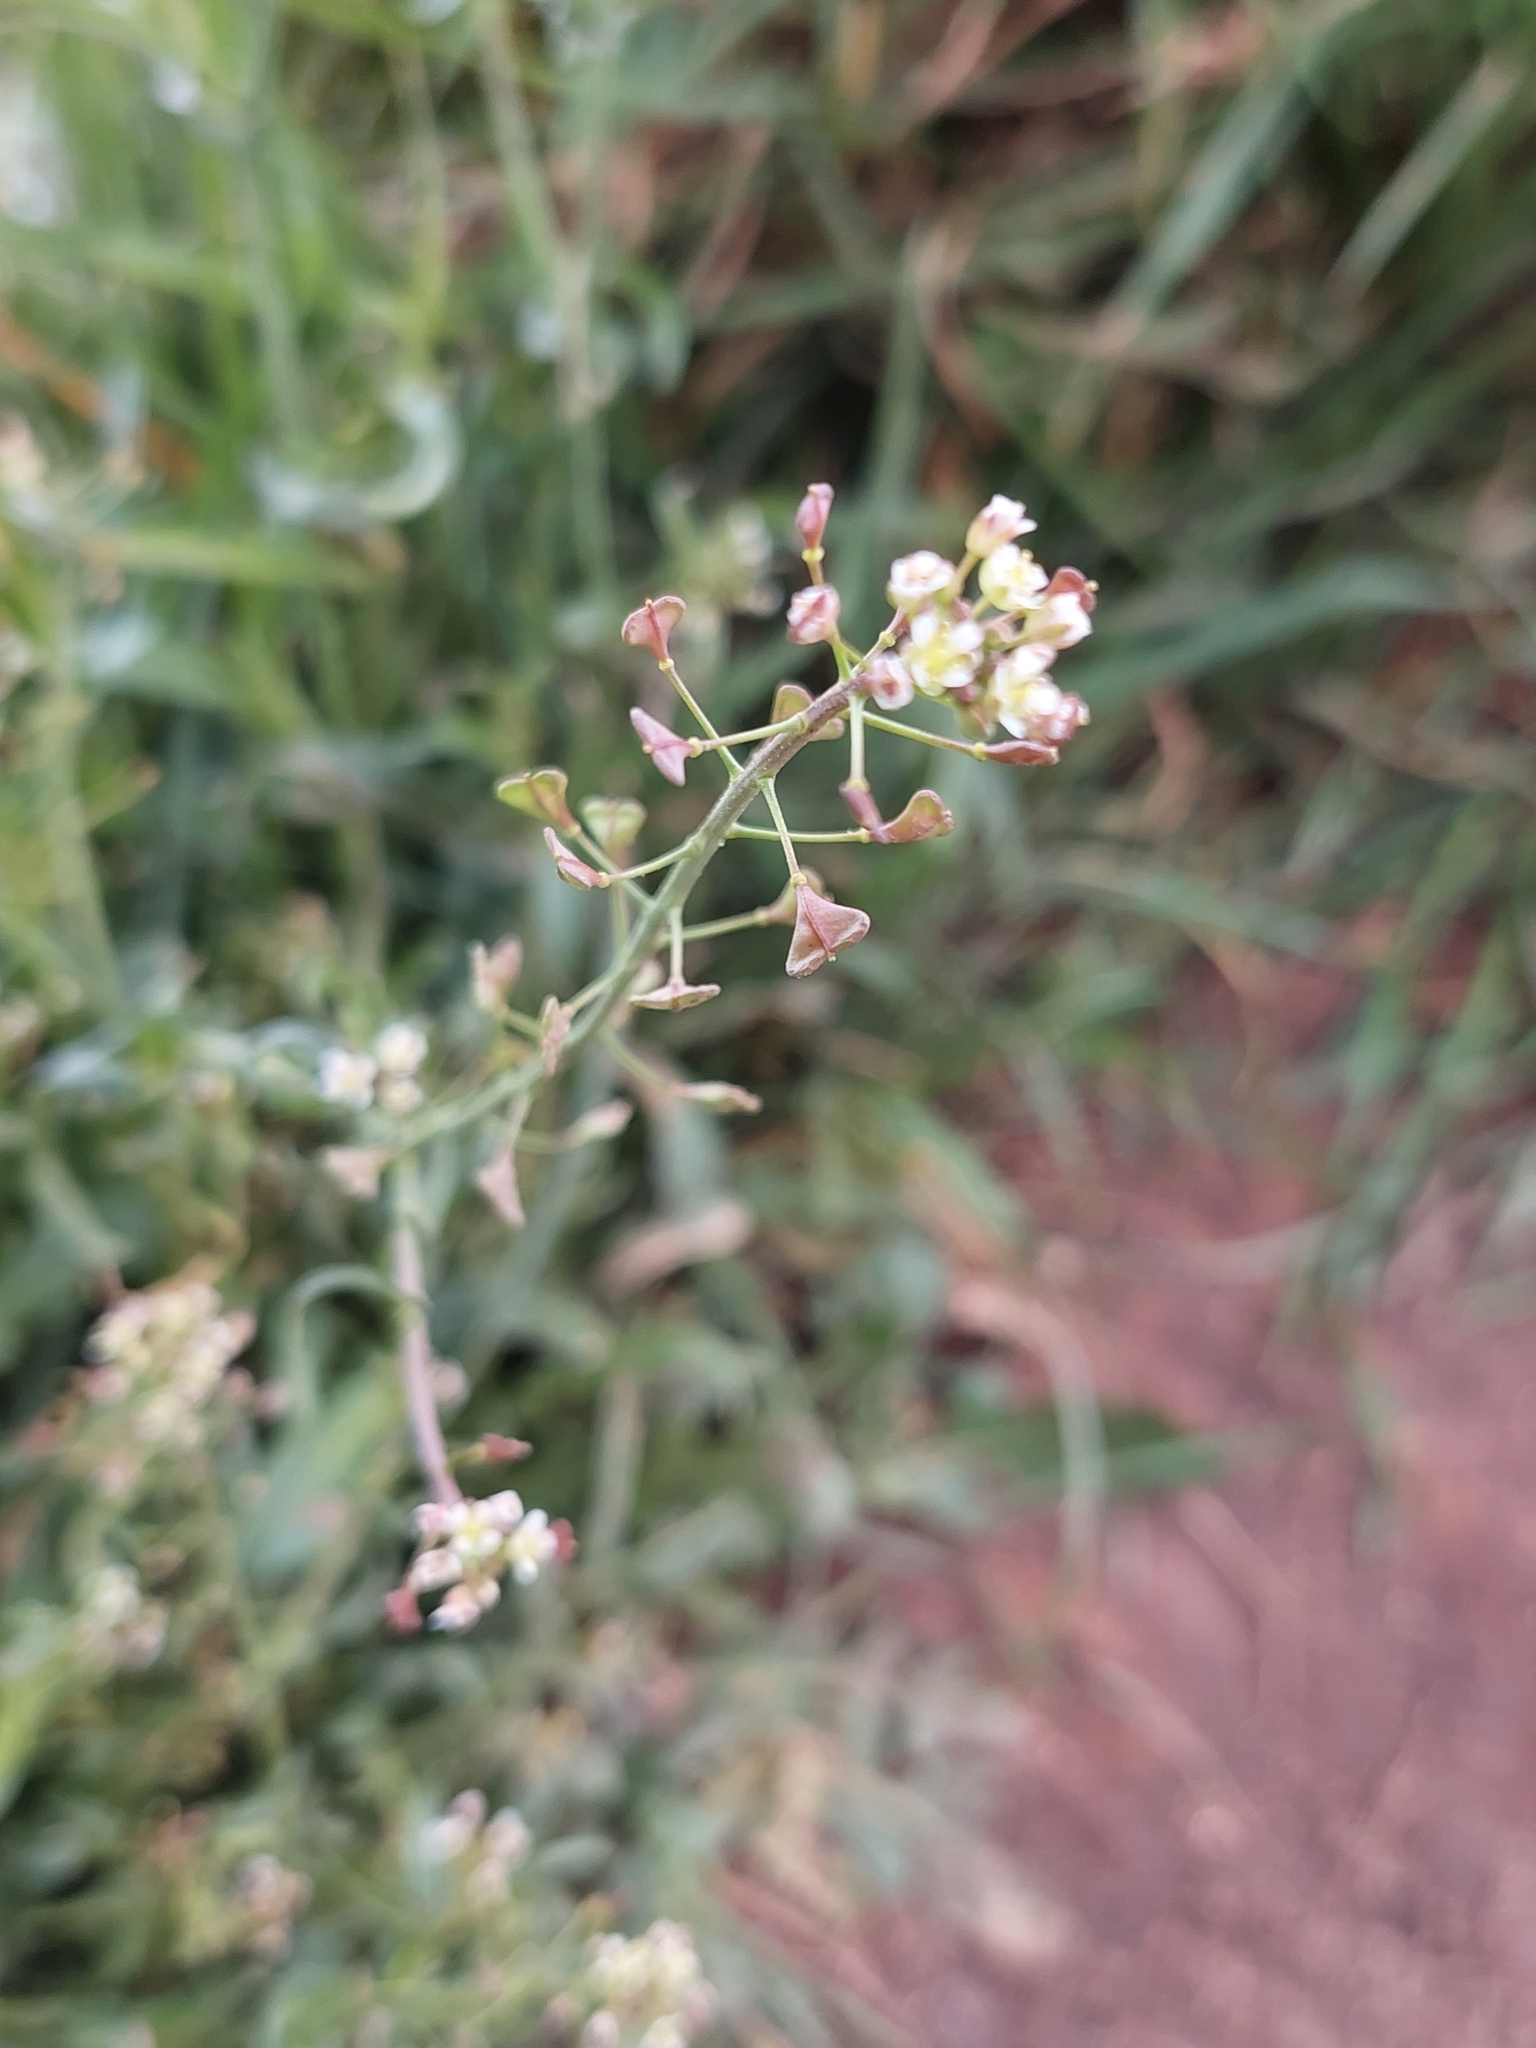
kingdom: Plantae
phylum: Tracheophyta
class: Magnoliopsida
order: Brassicales
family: Brassicaceae
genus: Capsella
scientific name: Capsella bursa-pastoris
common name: Shepherd's purse
